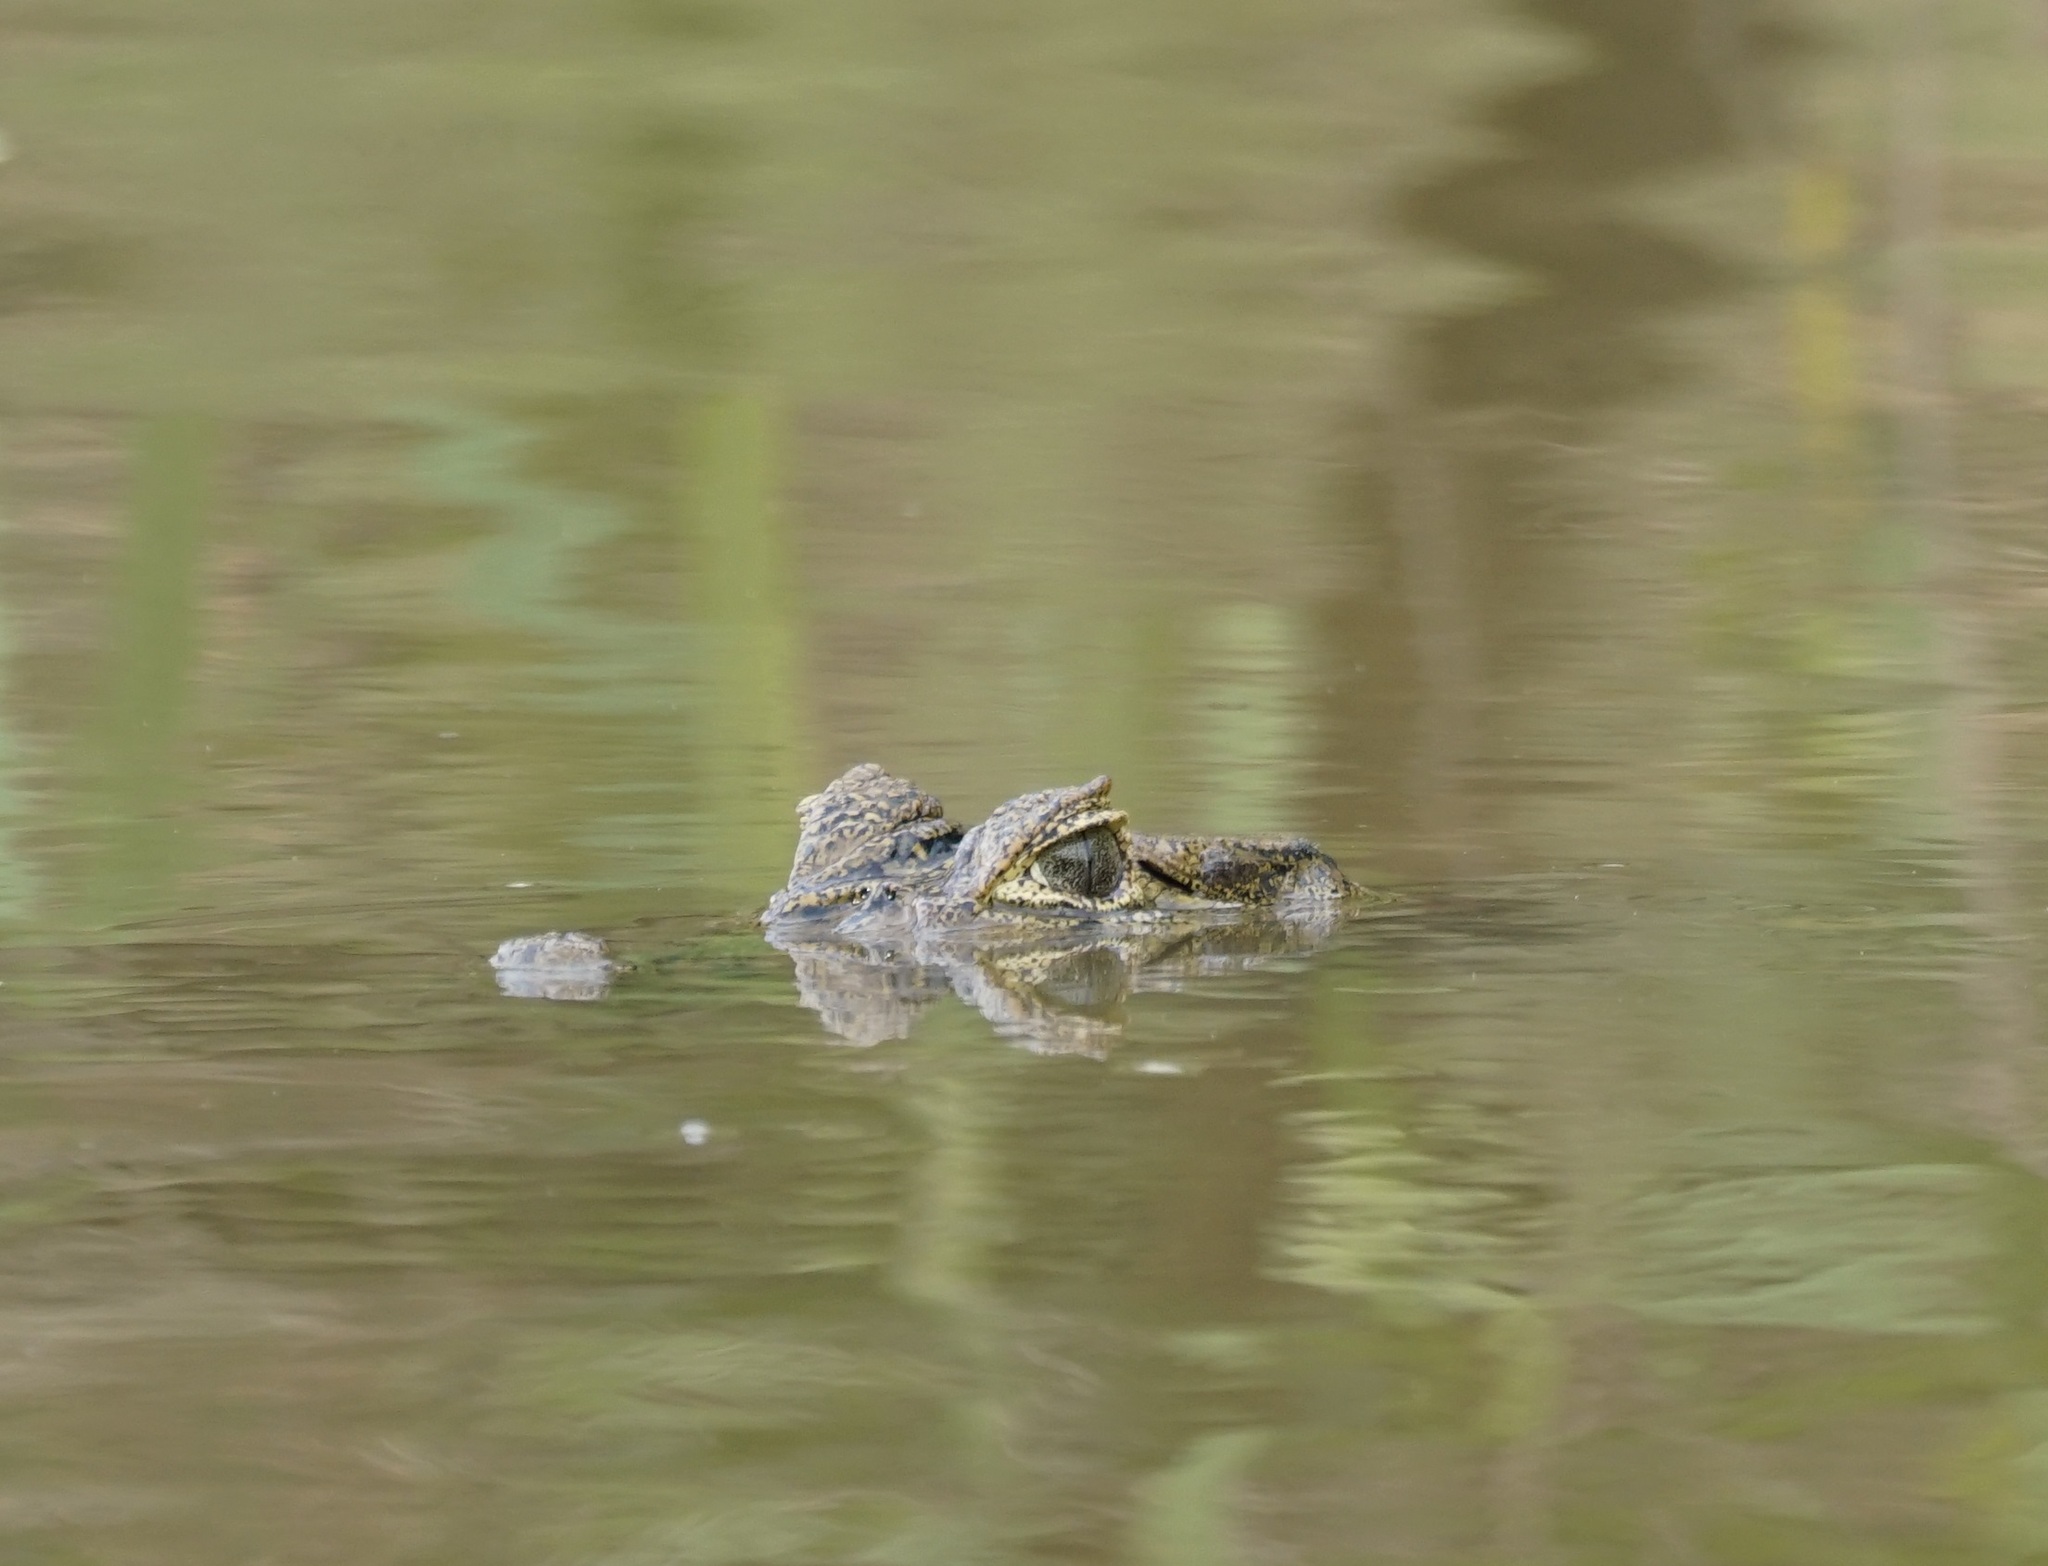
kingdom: Animalia
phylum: Chordata
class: Crocodylia
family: Alligatoridae
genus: Caiman
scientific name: Caiman yacare
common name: Yacare caiman
